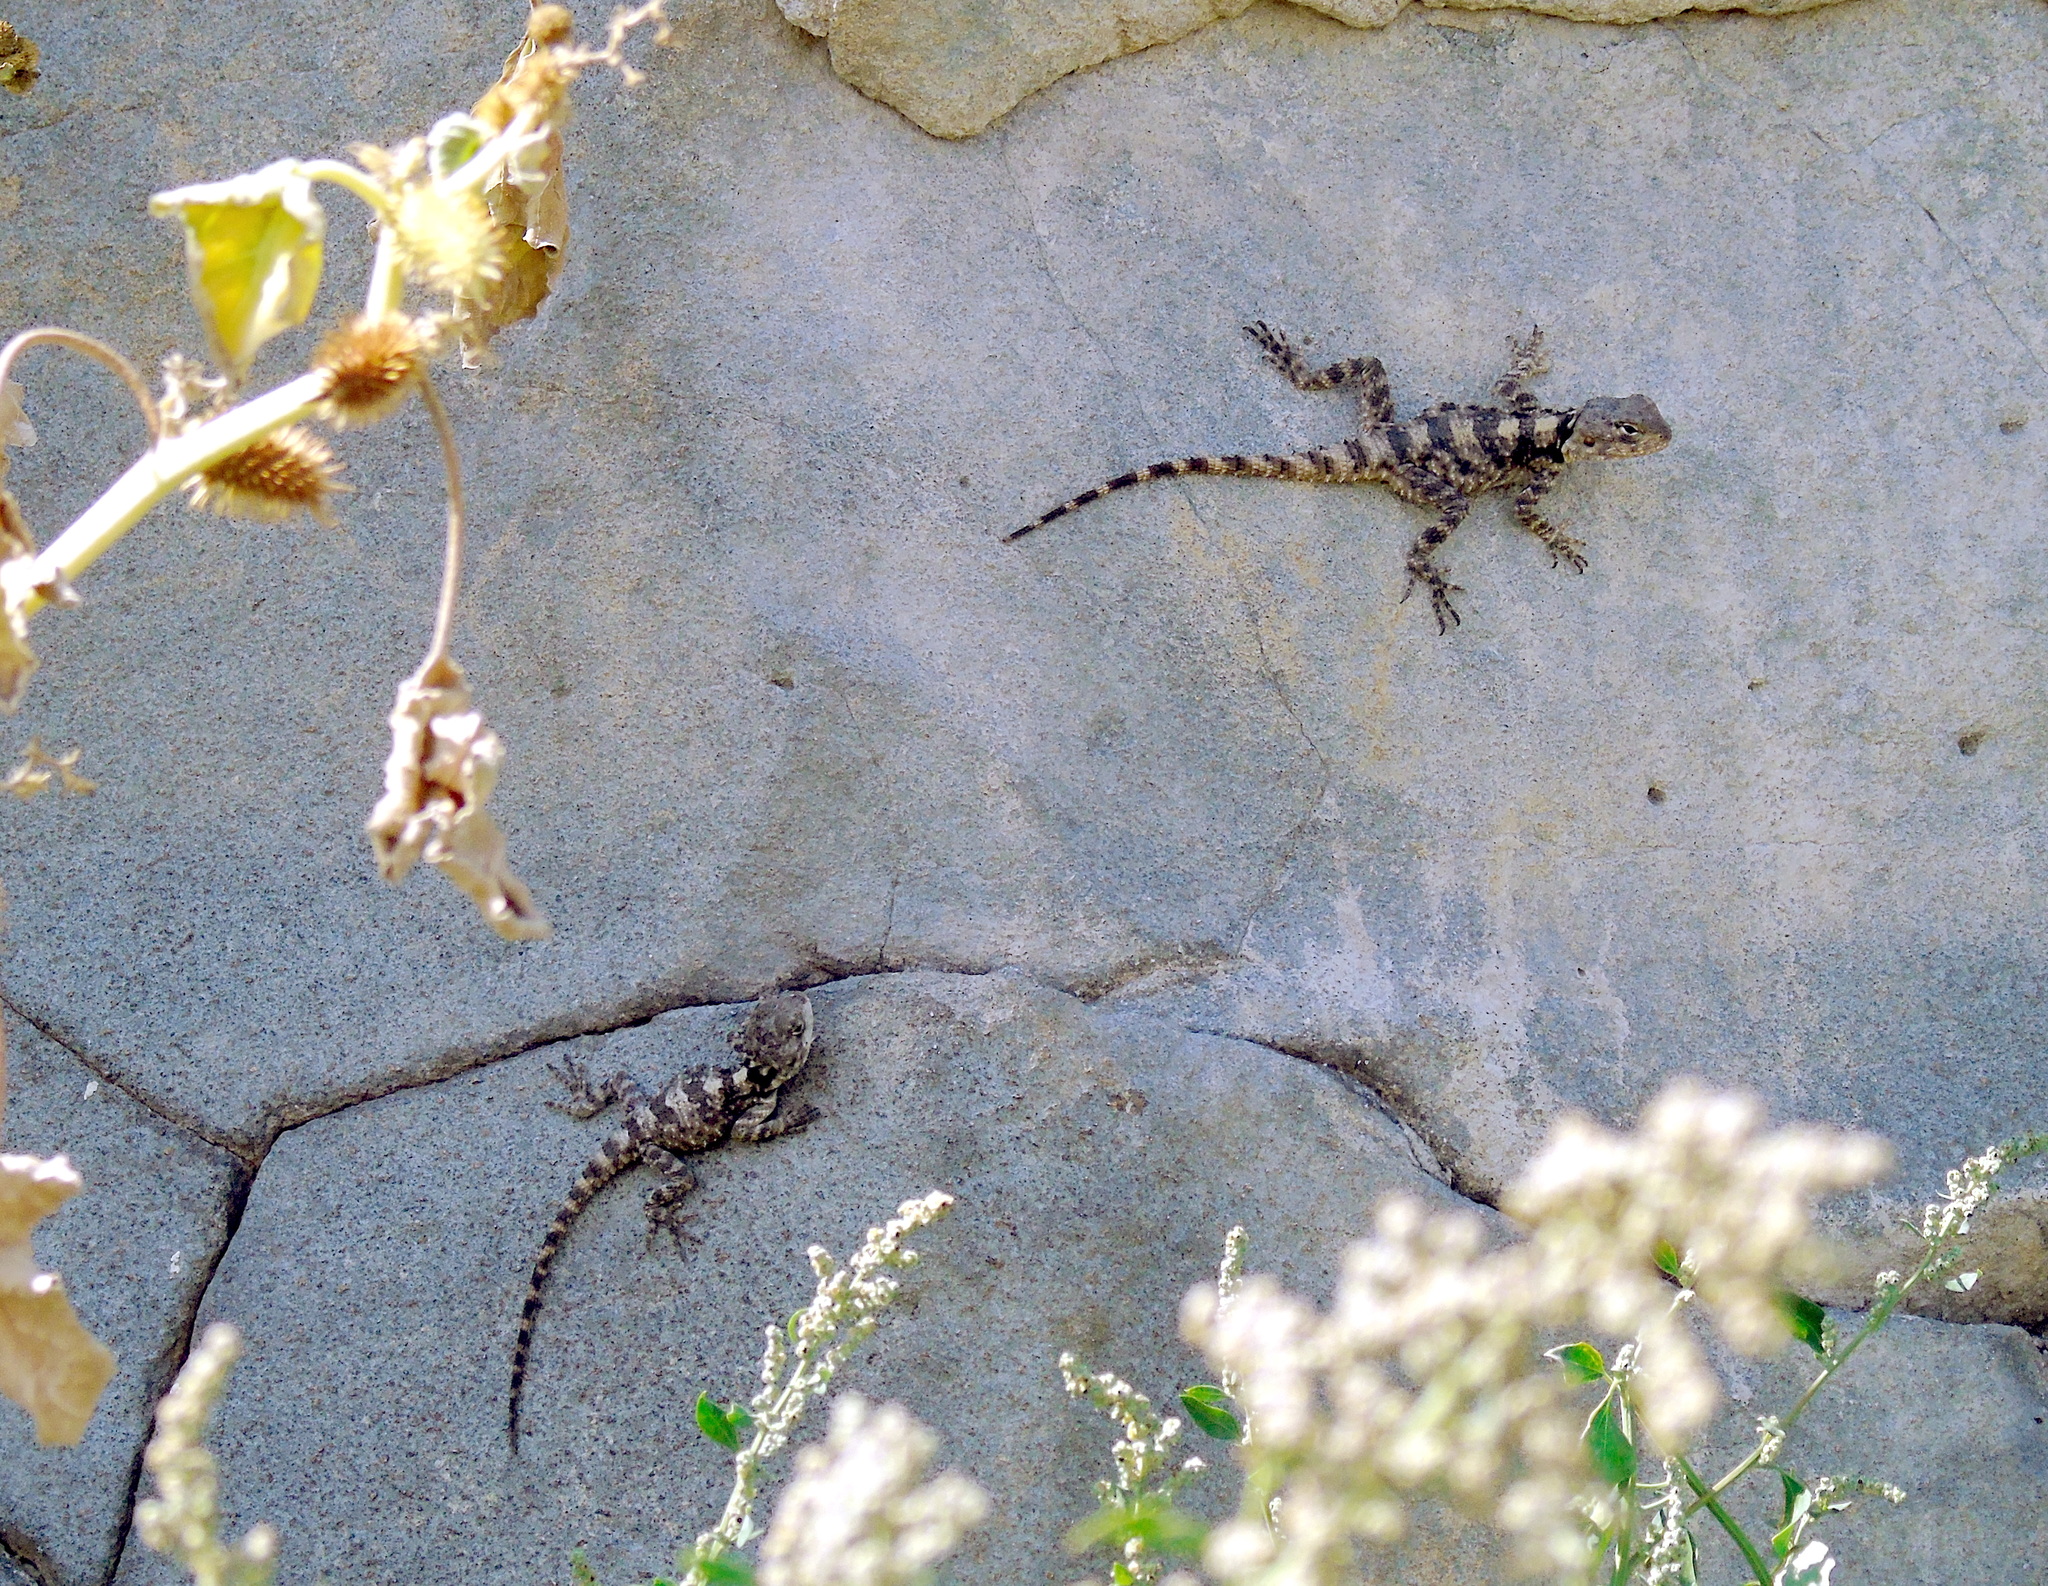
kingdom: Animalia
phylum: Chordata
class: Squamata
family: Agamidae
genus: Stellagama
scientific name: Stellagama stellio
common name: Starred agama
